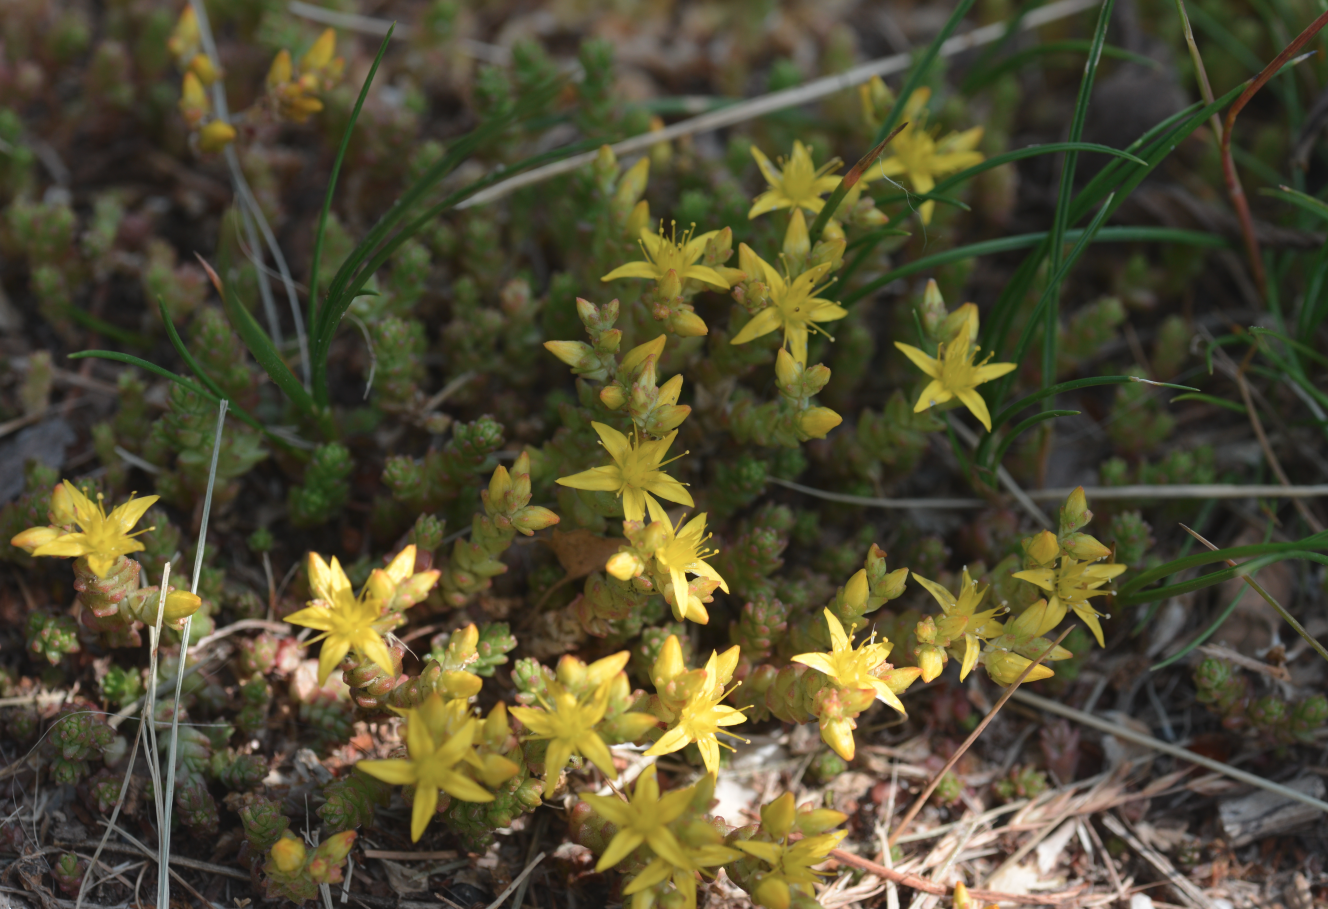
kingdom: Plantae
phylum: Tracheophyta
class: Magnoliopsida
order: Saxifragales
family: Crassulaceae
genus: Sedum
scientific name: Sedum acre
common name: Biting stonecrop
